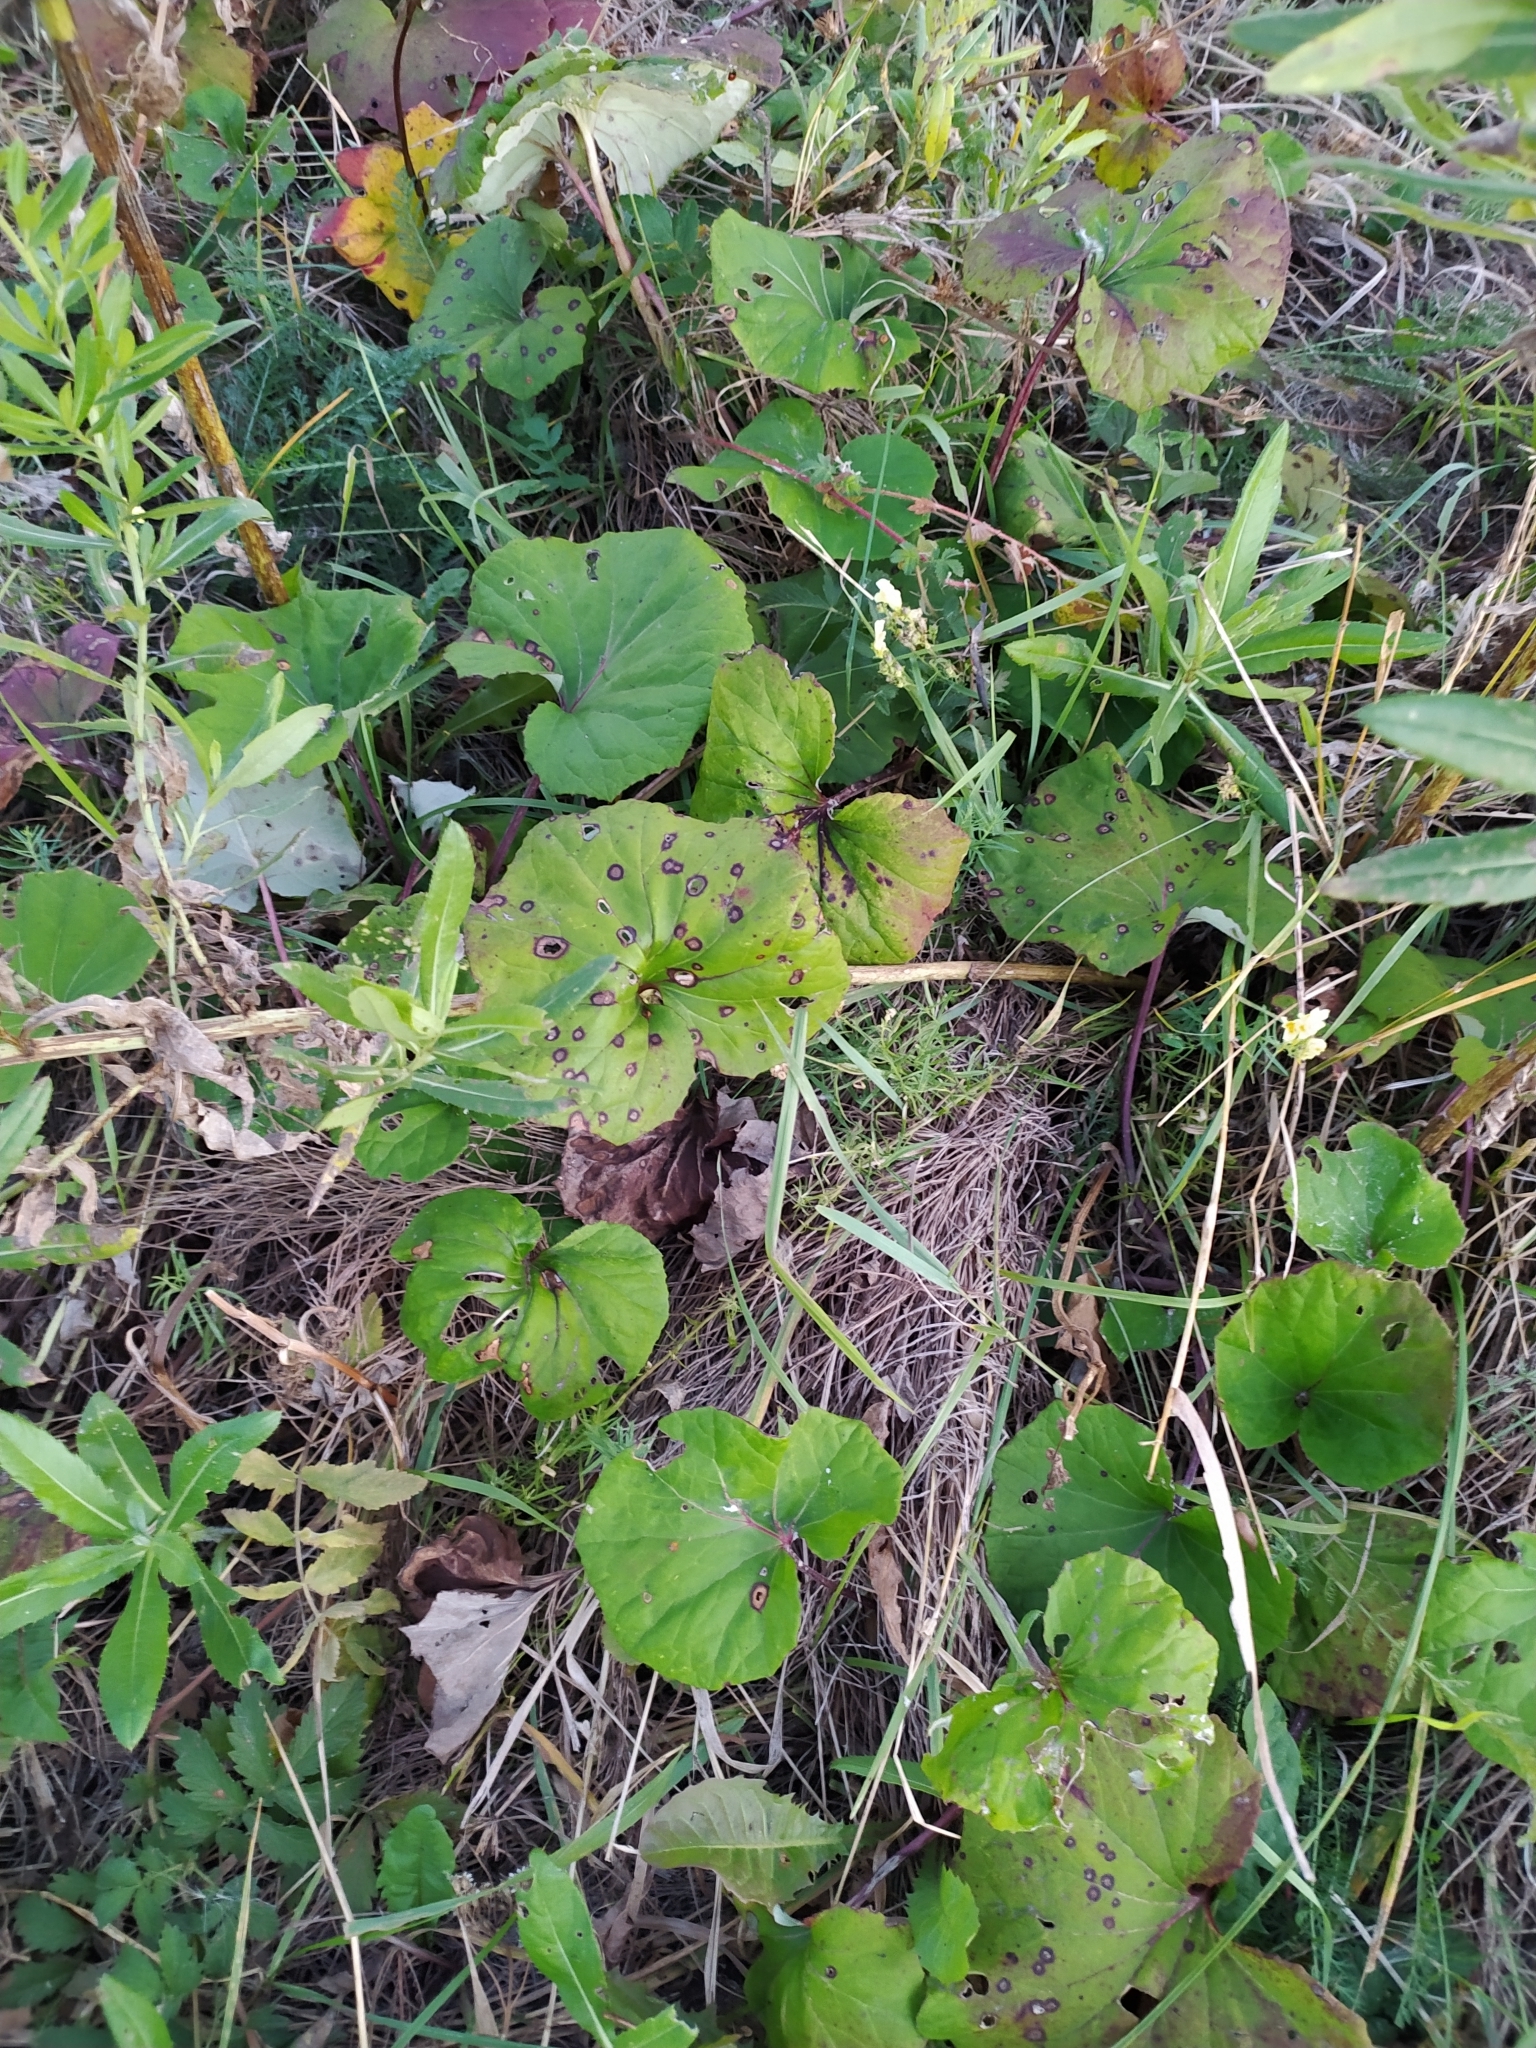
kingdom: Plantae
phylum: Tracheophyta
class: Magnoliopsida
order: Asterales
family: Asteraceae
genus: Tussilago
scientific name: Tussilago farfara
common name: Coltsfoot
